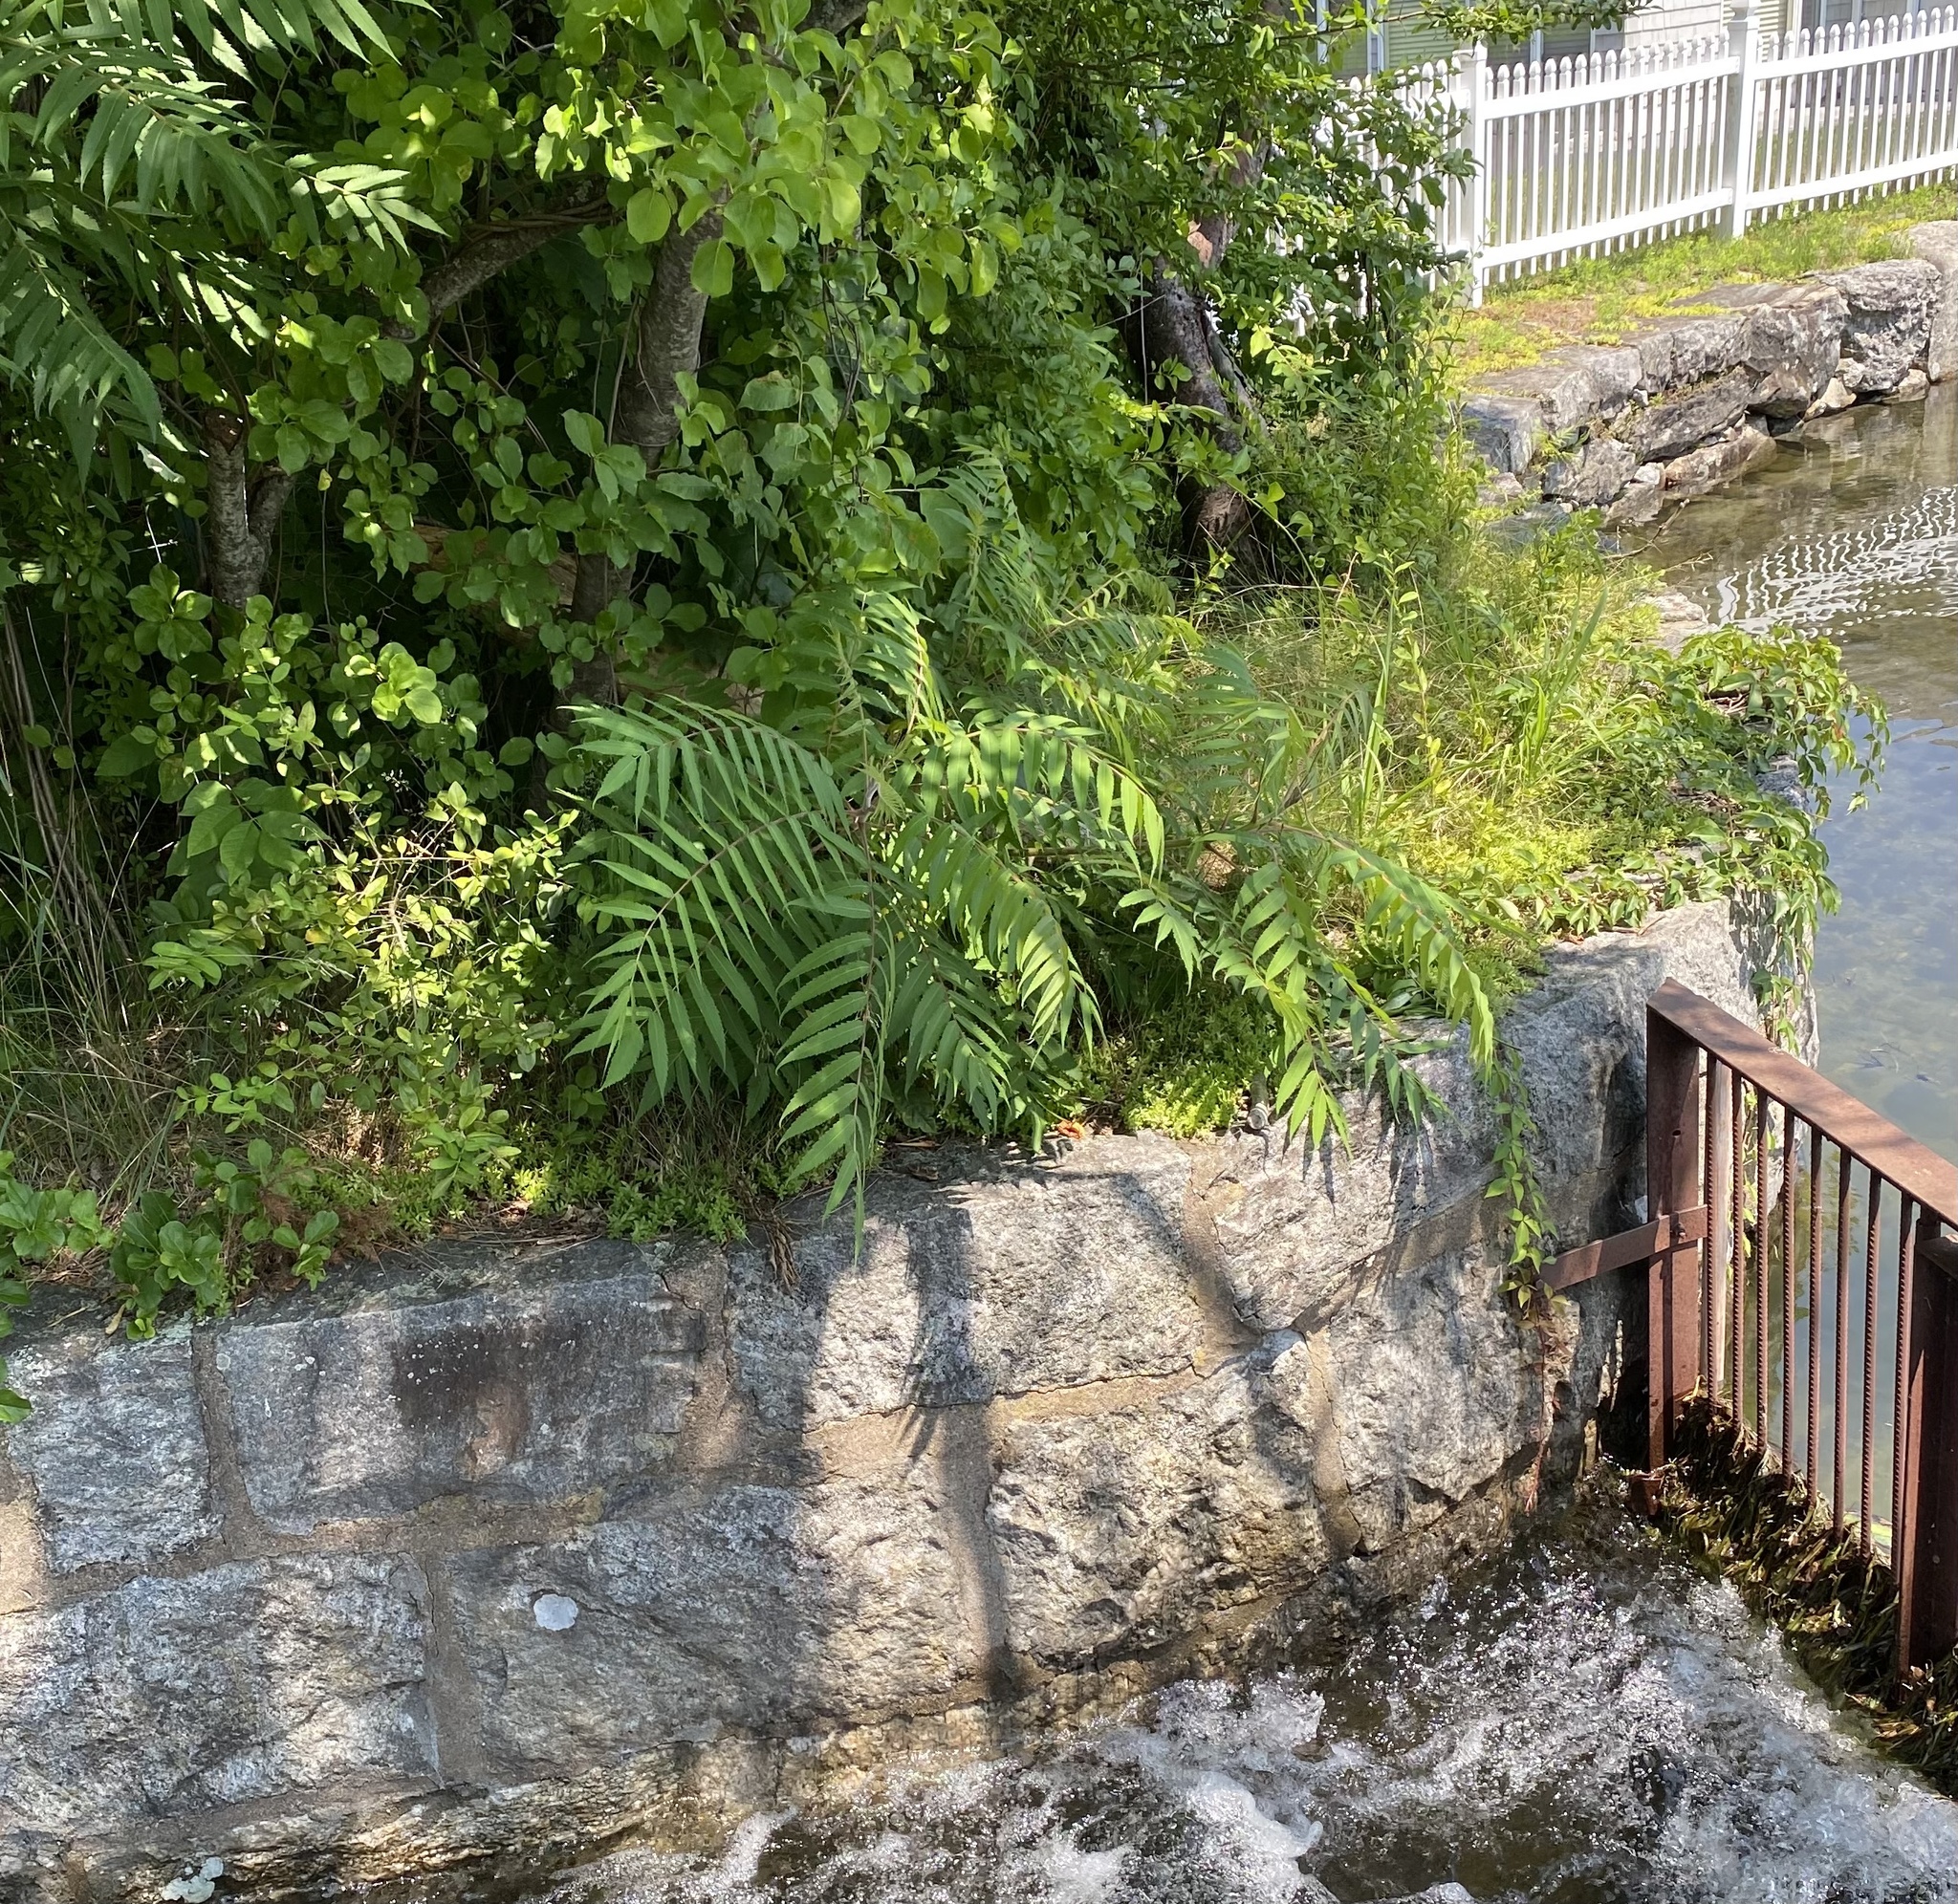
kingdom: Plantae
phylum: Tracheophyta
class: Magnoliopsida
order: Sapindales
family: Anacardiaceae
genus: Rhus
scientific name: Rhus typhina
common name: Staghorn sumac
